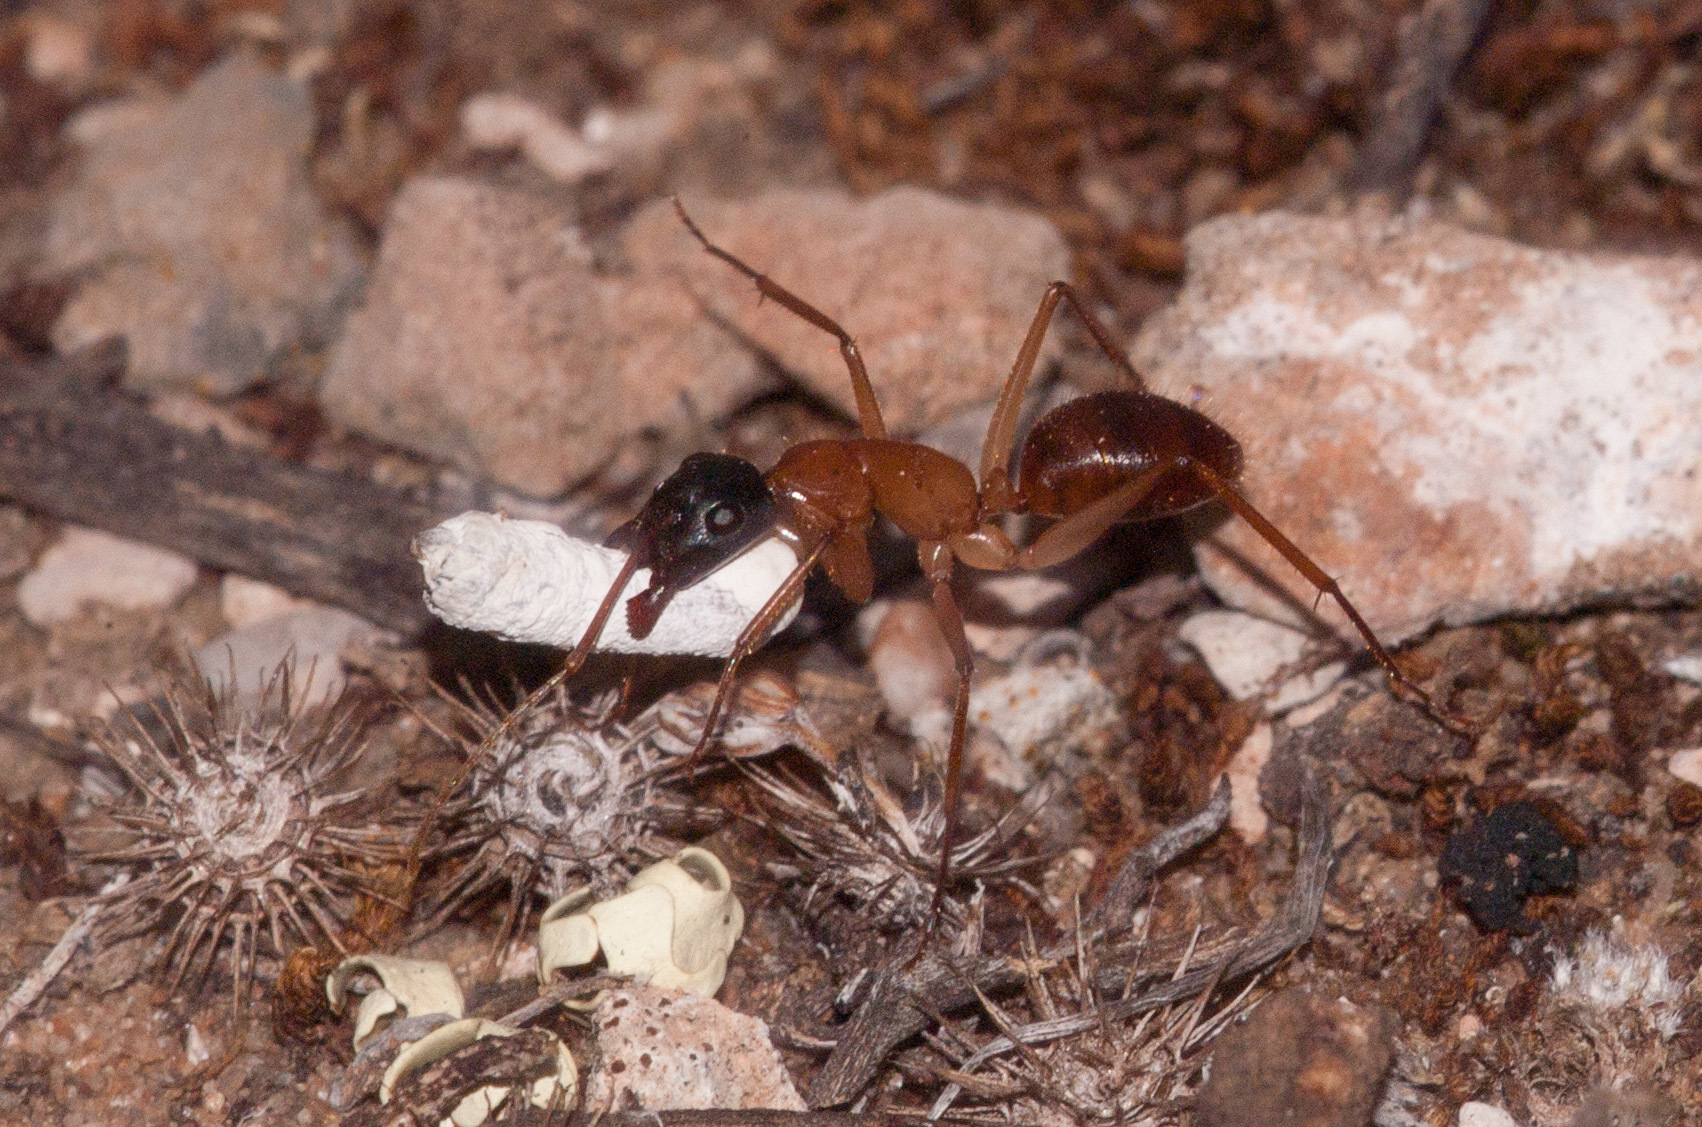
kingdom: Animalia
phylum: Arthropoda
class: Insecta
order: Hymenoptera
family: Formicidae
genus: Camponotus
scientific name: Camponotus nigriceps
